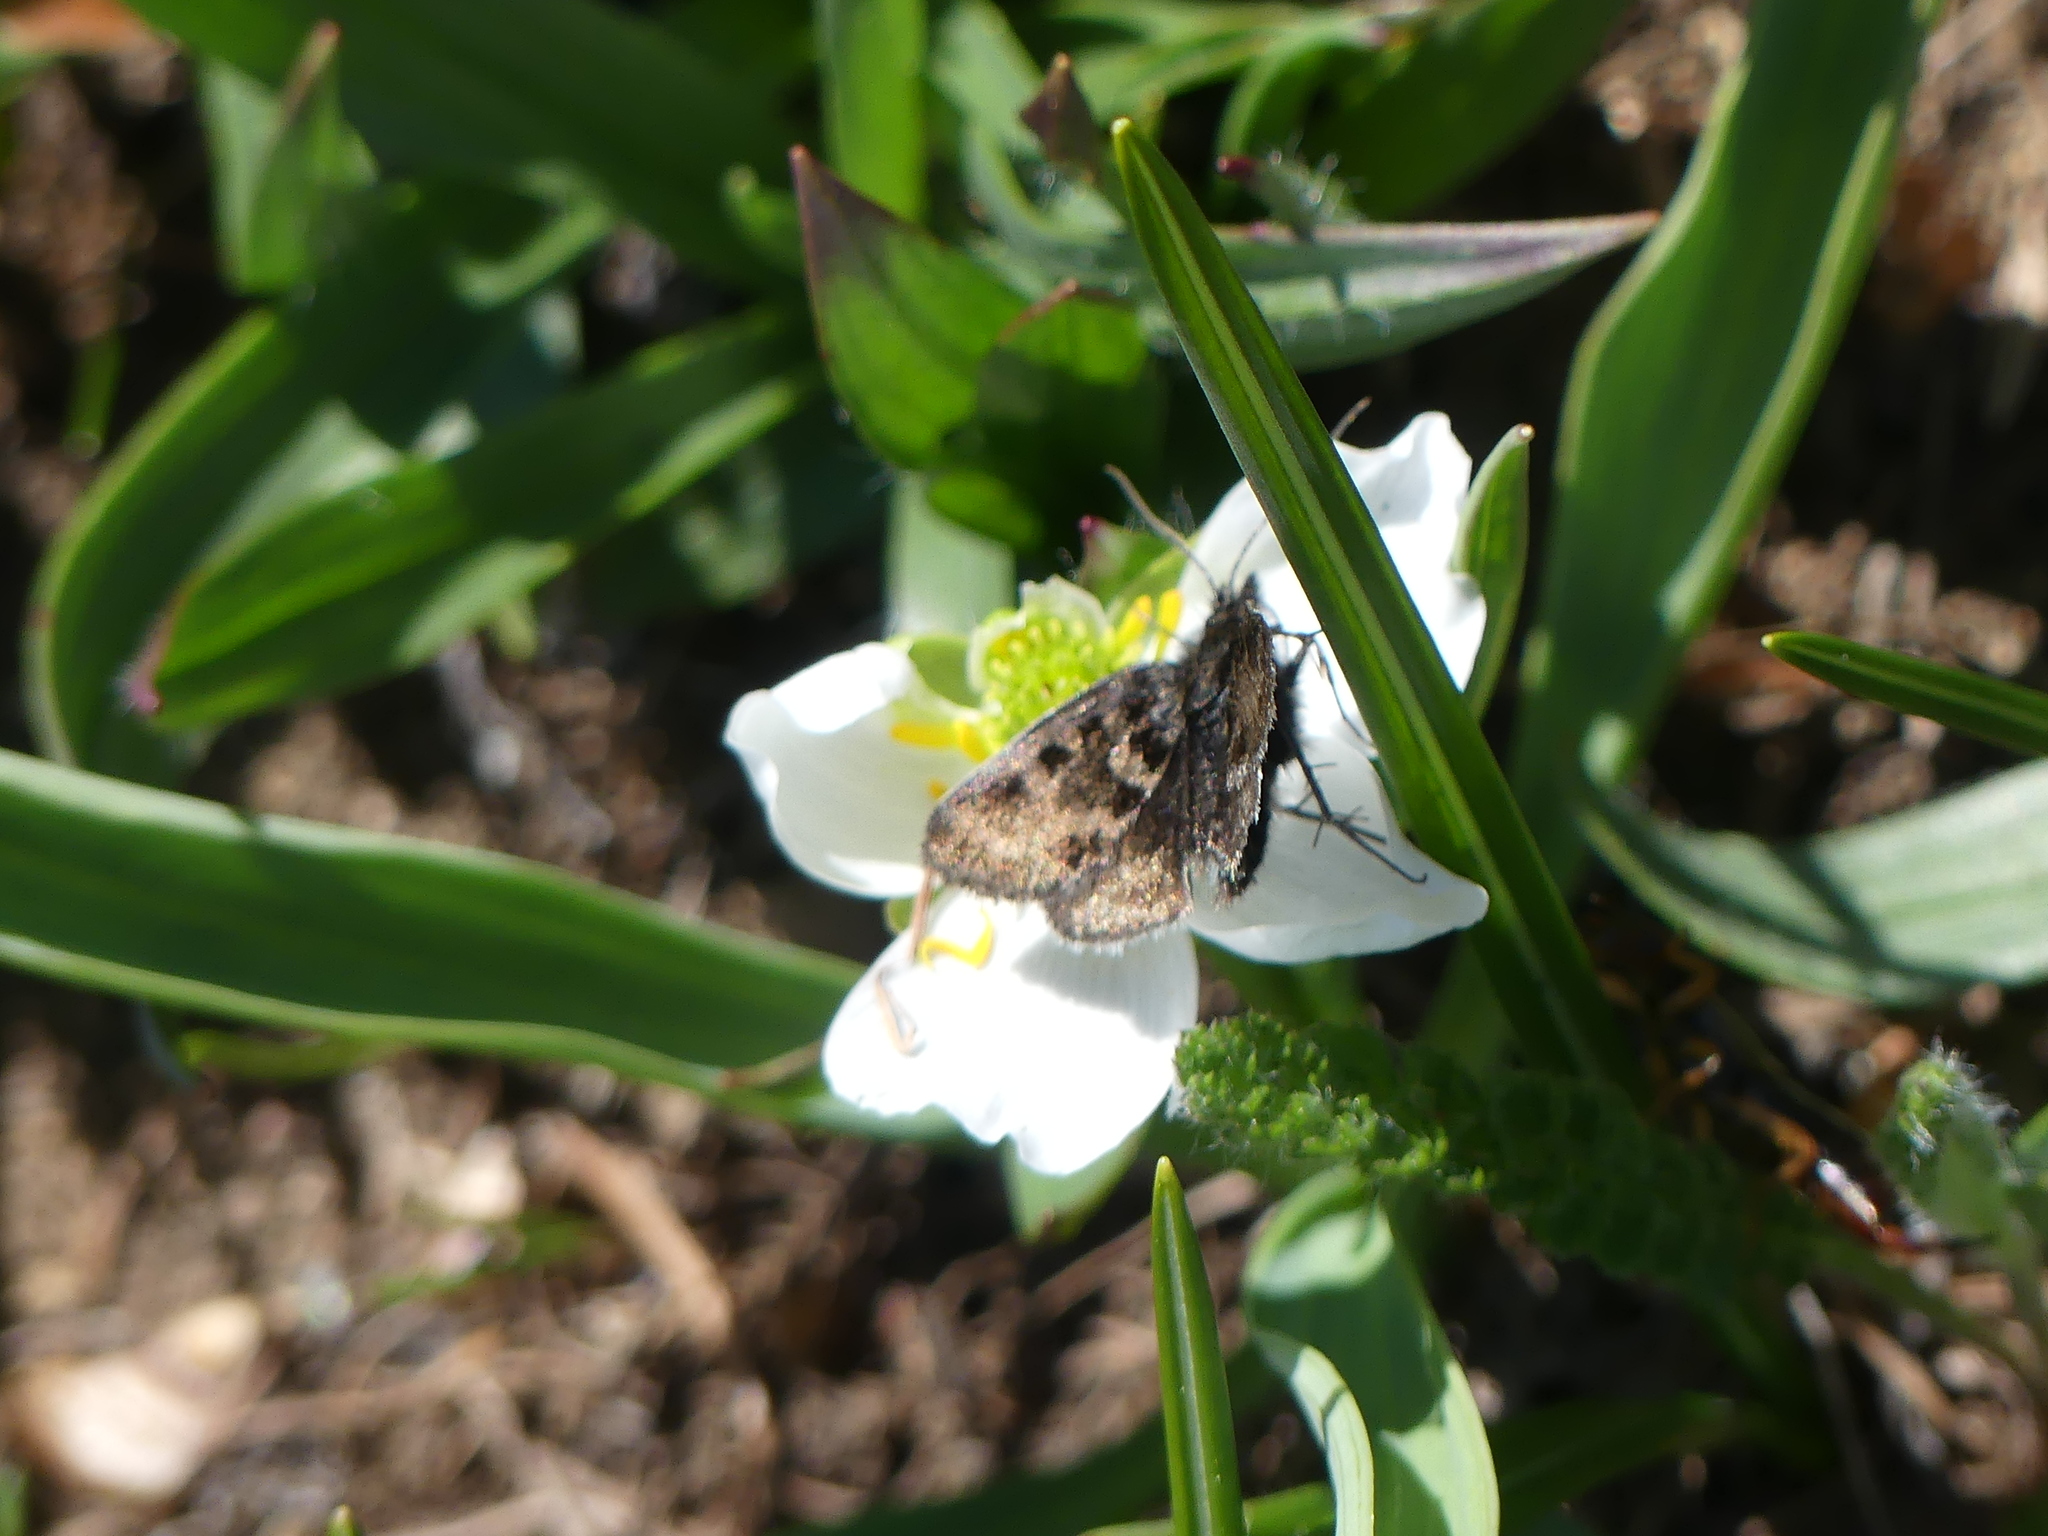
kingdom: Animalia
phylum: Arthropoda
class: Insecta
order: Lepidoptera
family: Crambidae
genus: Metaxmeste
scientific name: Metaxmeste schrankiana
